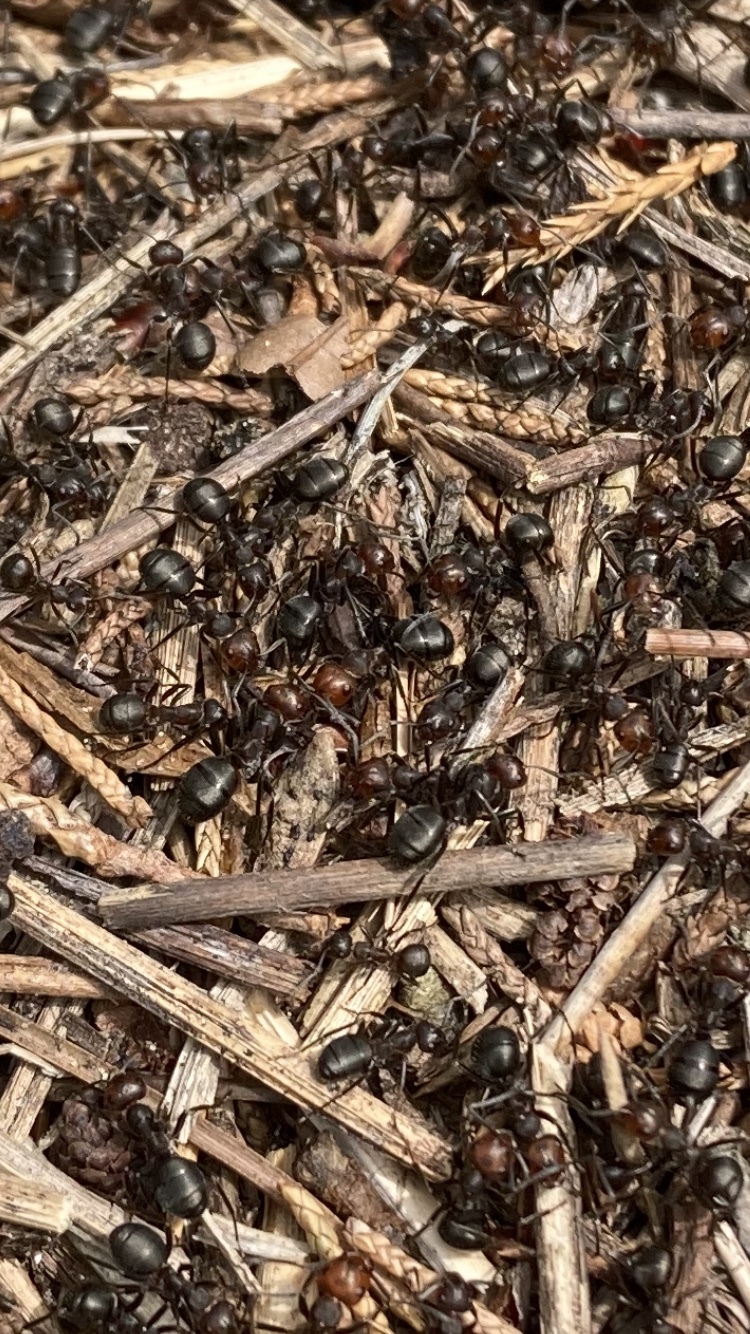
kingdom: Animalia
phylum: Arthropoda
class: Insecta
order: Hymenoptera
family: Formicidae
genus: Formica
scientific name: Formica obscuripes
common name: Western thatching ant
